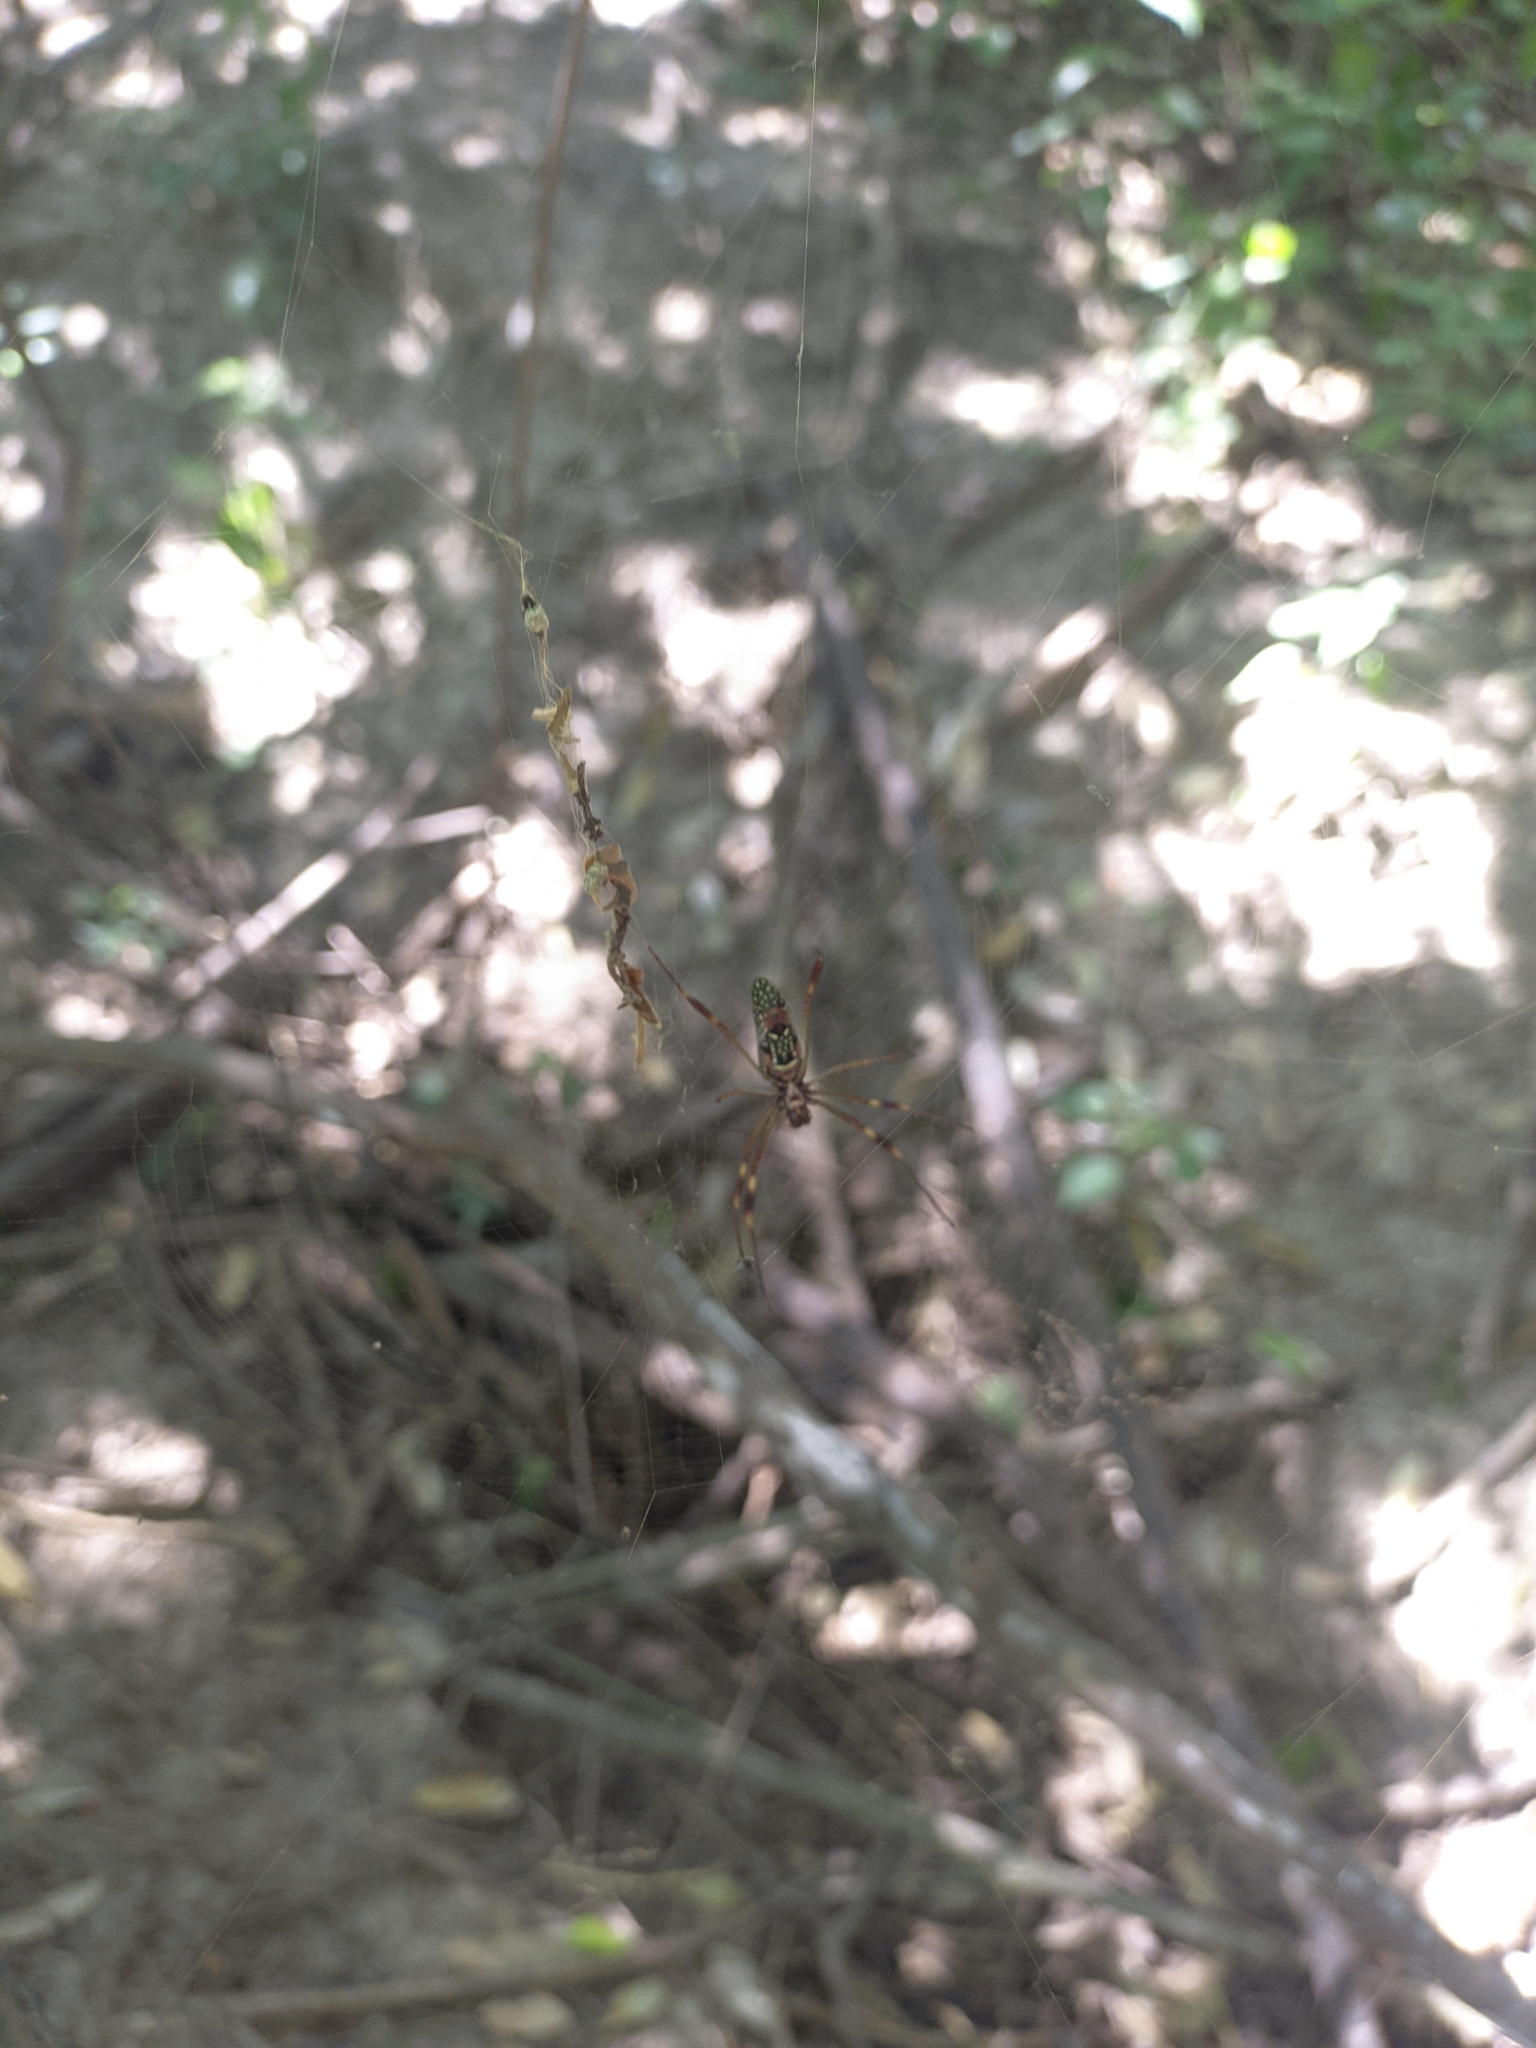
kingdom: Animalia
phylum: Arthropoda
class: Arachnida
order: Araneae
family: Araneidae
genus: Trichonephila
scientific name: Trichonephila clavipes
